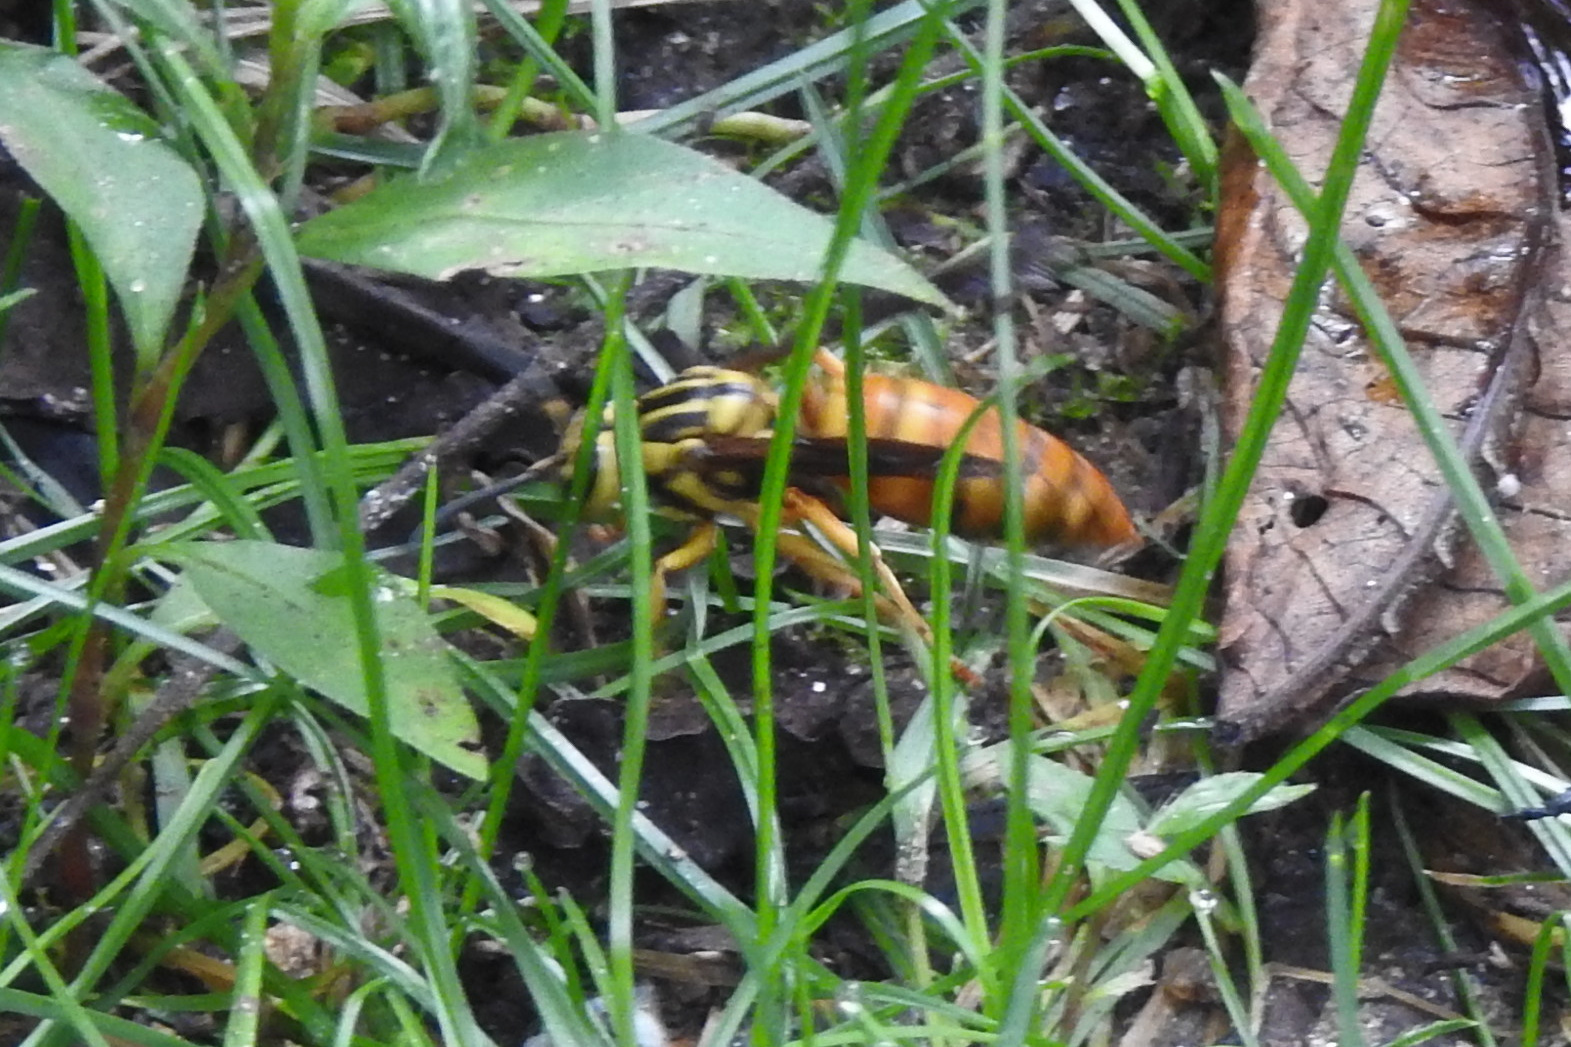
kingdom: Animalia
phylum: Arthropoda
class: Insecta
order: Hymenoptera
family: Vespidae
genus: Vespula
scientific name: Vespula squamosa
